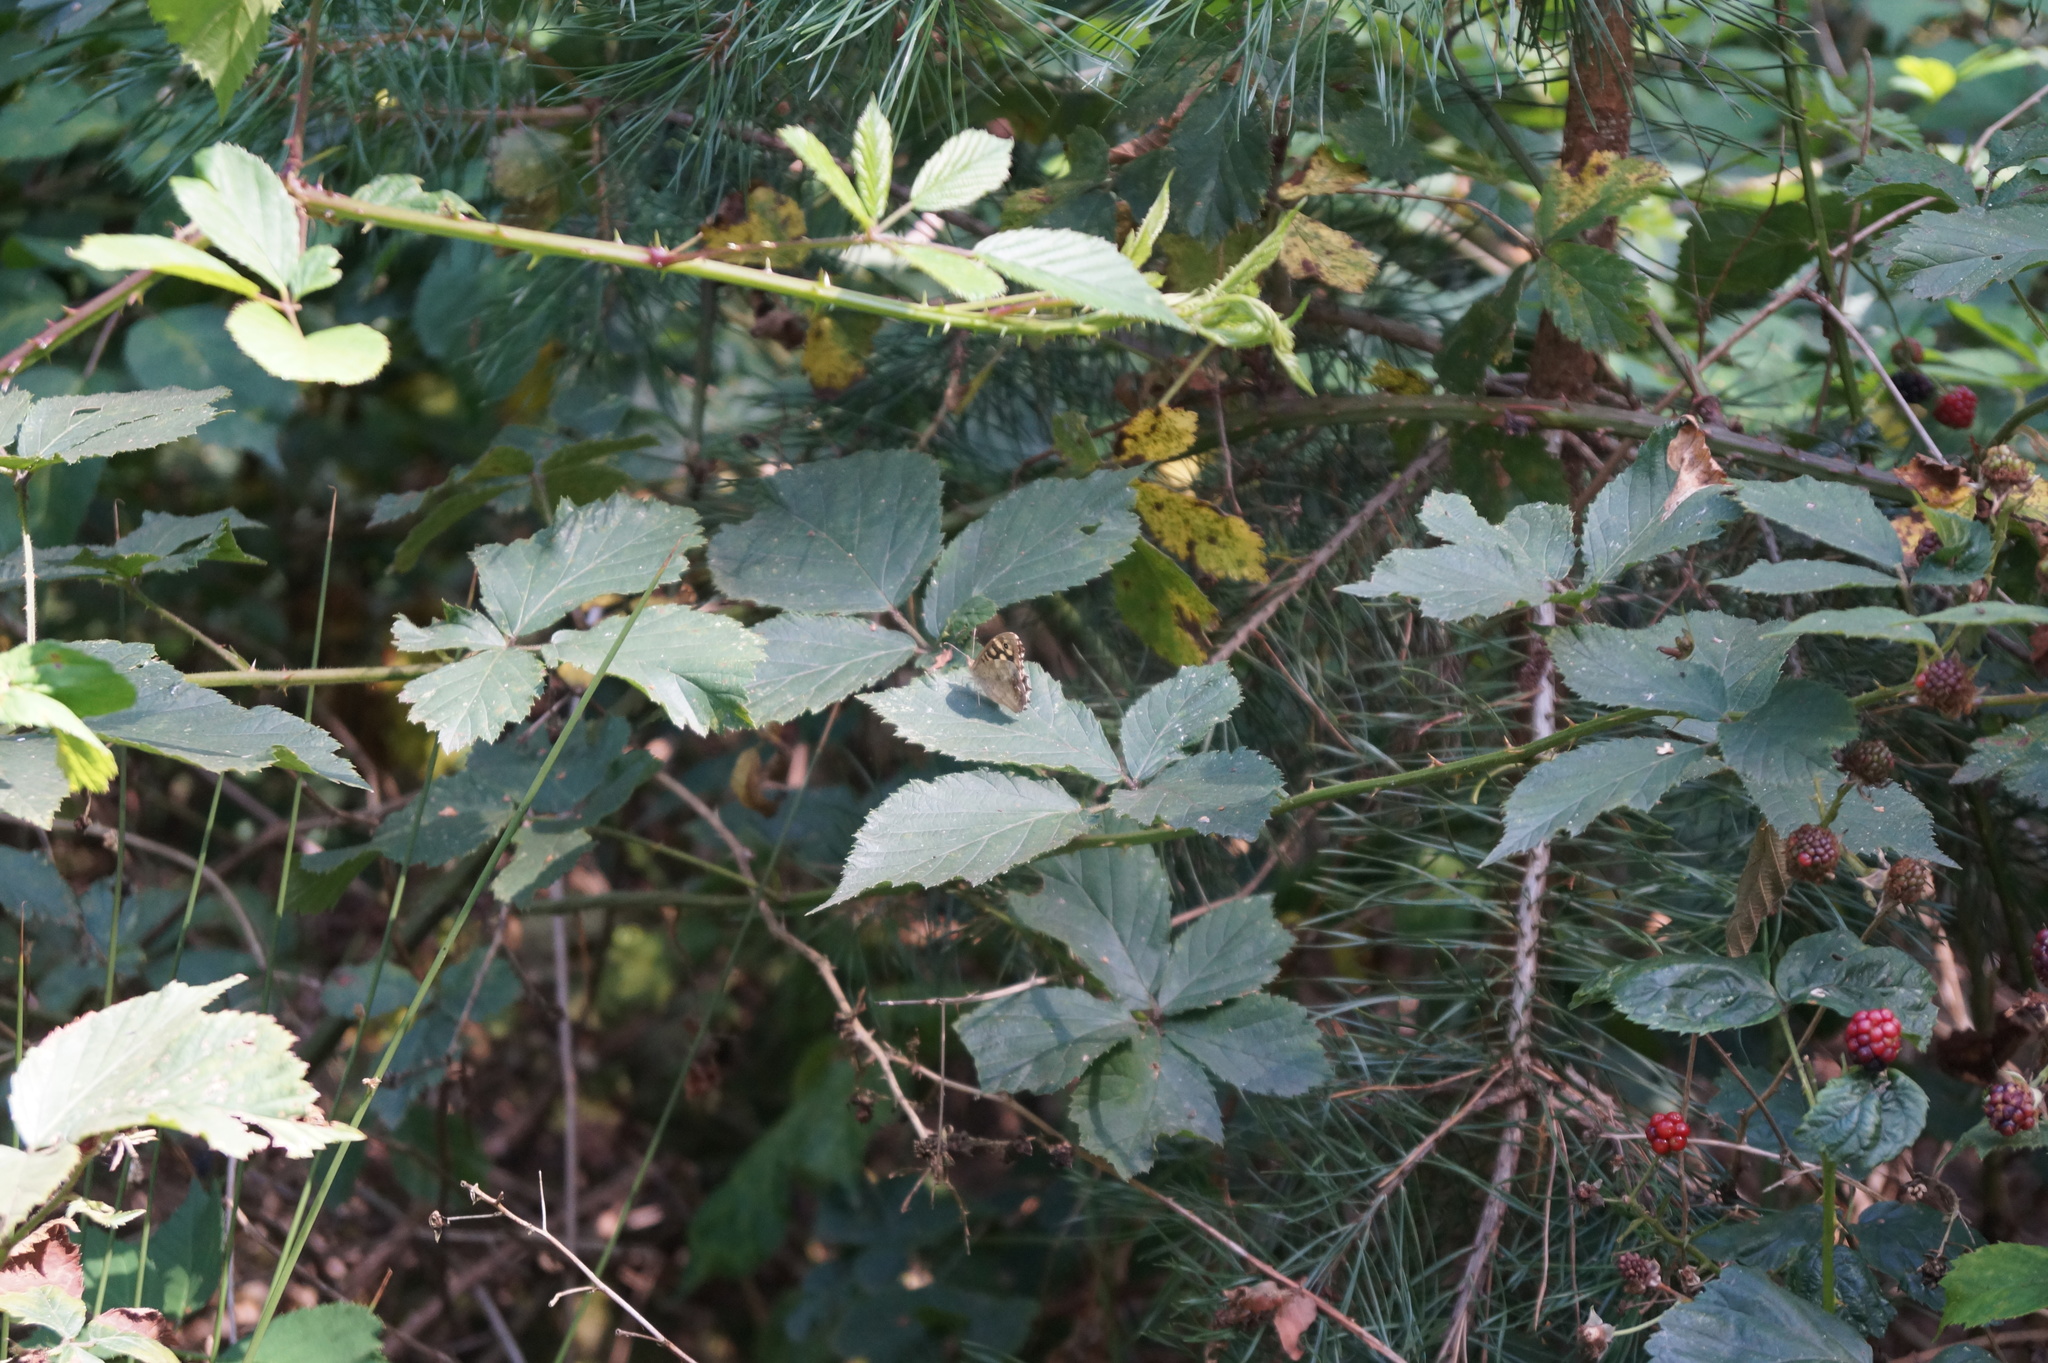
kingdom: Animalia
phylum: Arthropoda
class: Insecta
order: Lepidoptera
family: Nymphalidae
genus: Pararge
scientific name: Pararge aegeria
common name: Speckled wood
